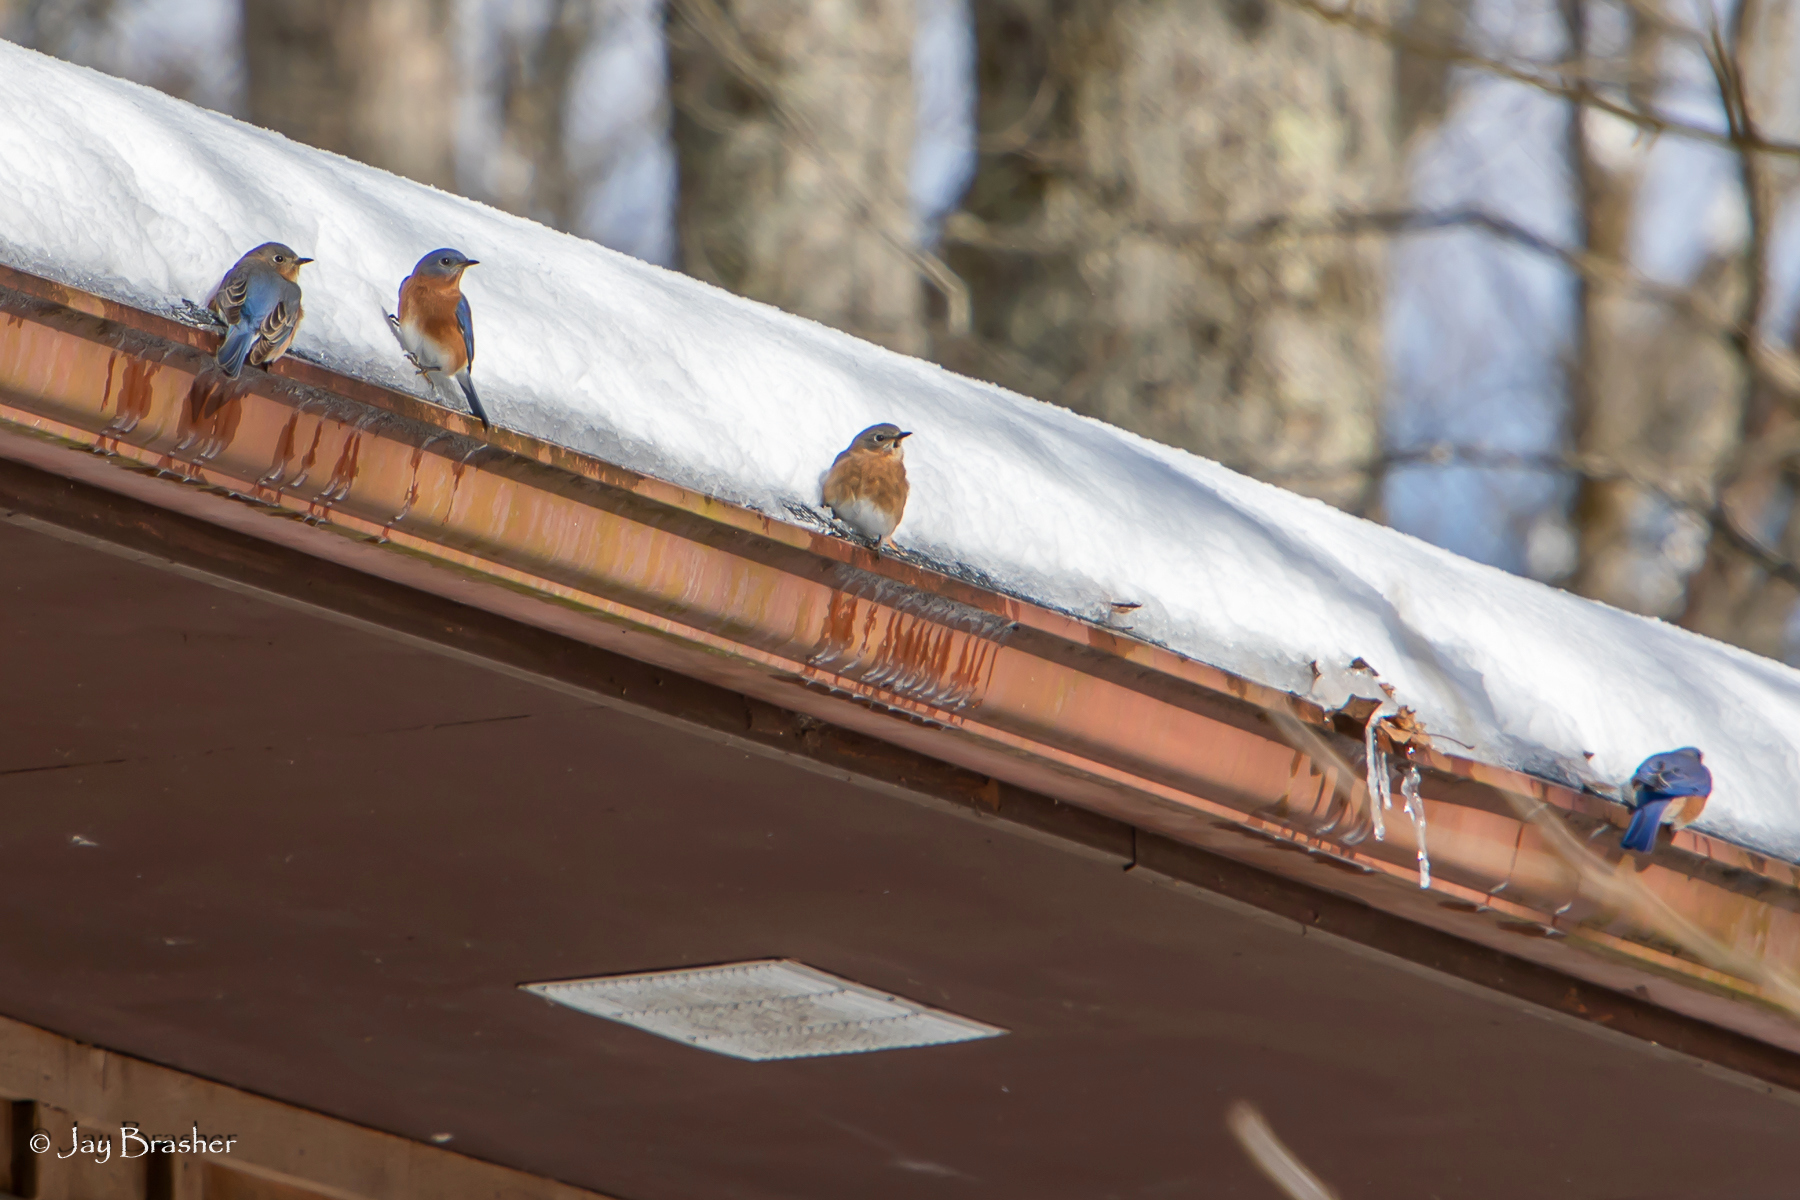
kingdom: Animalia
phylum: Chordata
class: Aves
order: Passeriformes
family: Turdidae
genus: Sialia
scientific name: Sialia sialis
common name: Eastern bluebird
